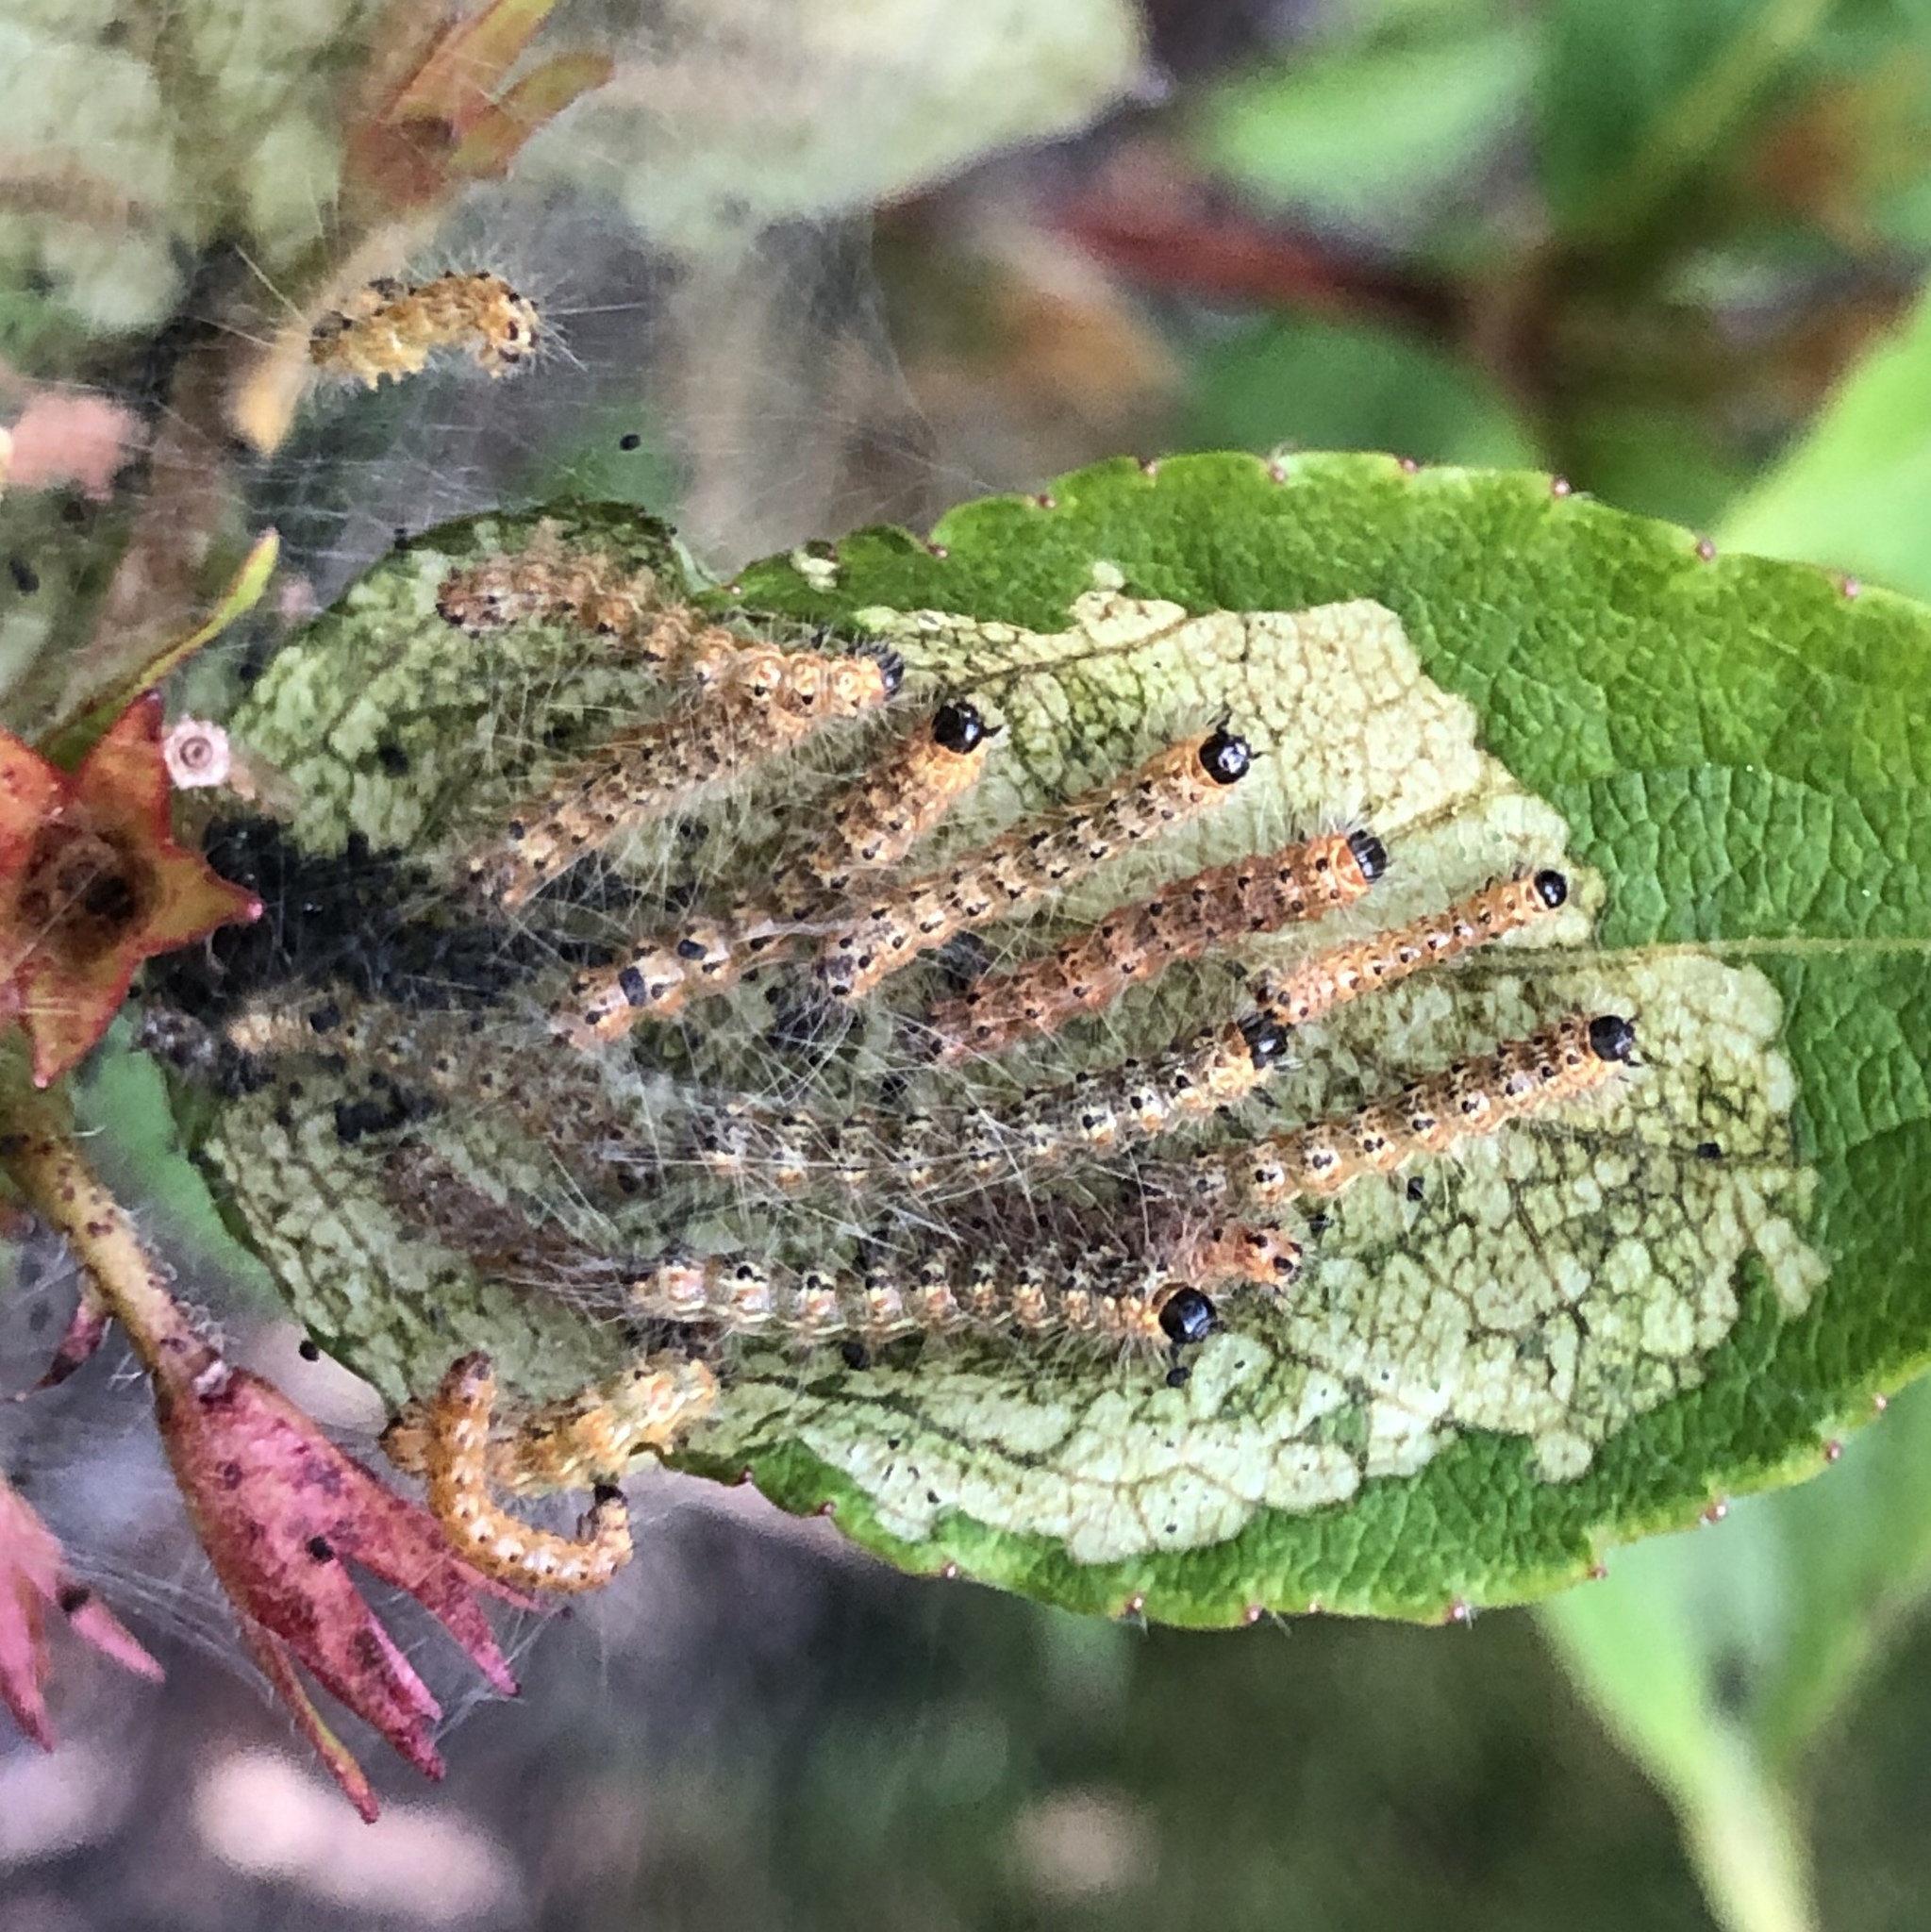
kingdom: Animalia
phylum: Arthropoda
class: Insecta
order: Lepidoptera
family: Erebidae
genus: Hyphantria
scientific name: Hyphantria cunea
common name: American white moth
